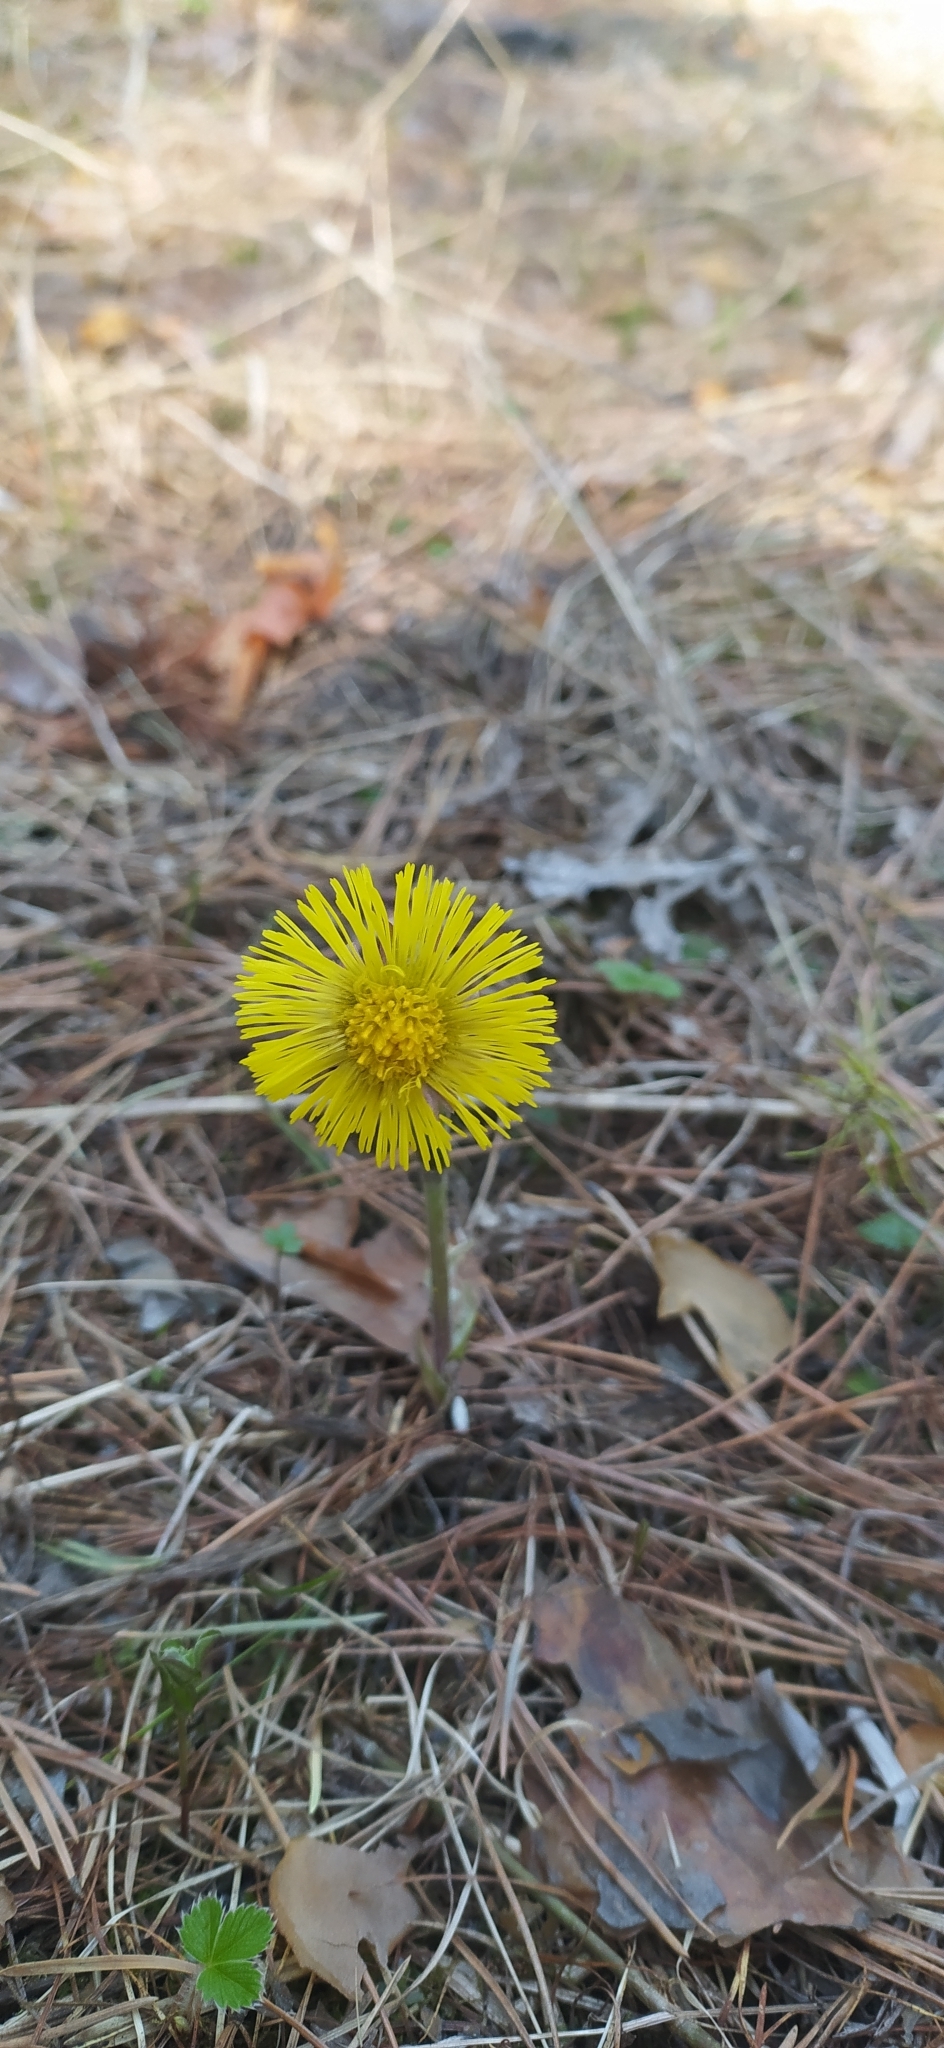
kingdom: Plantae
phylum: Tracheophyta
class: Magnoliopsida
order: Asterales
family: Asteraceae
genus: Tussilago
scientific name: Tussilago farfara
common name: Coltsfoot
